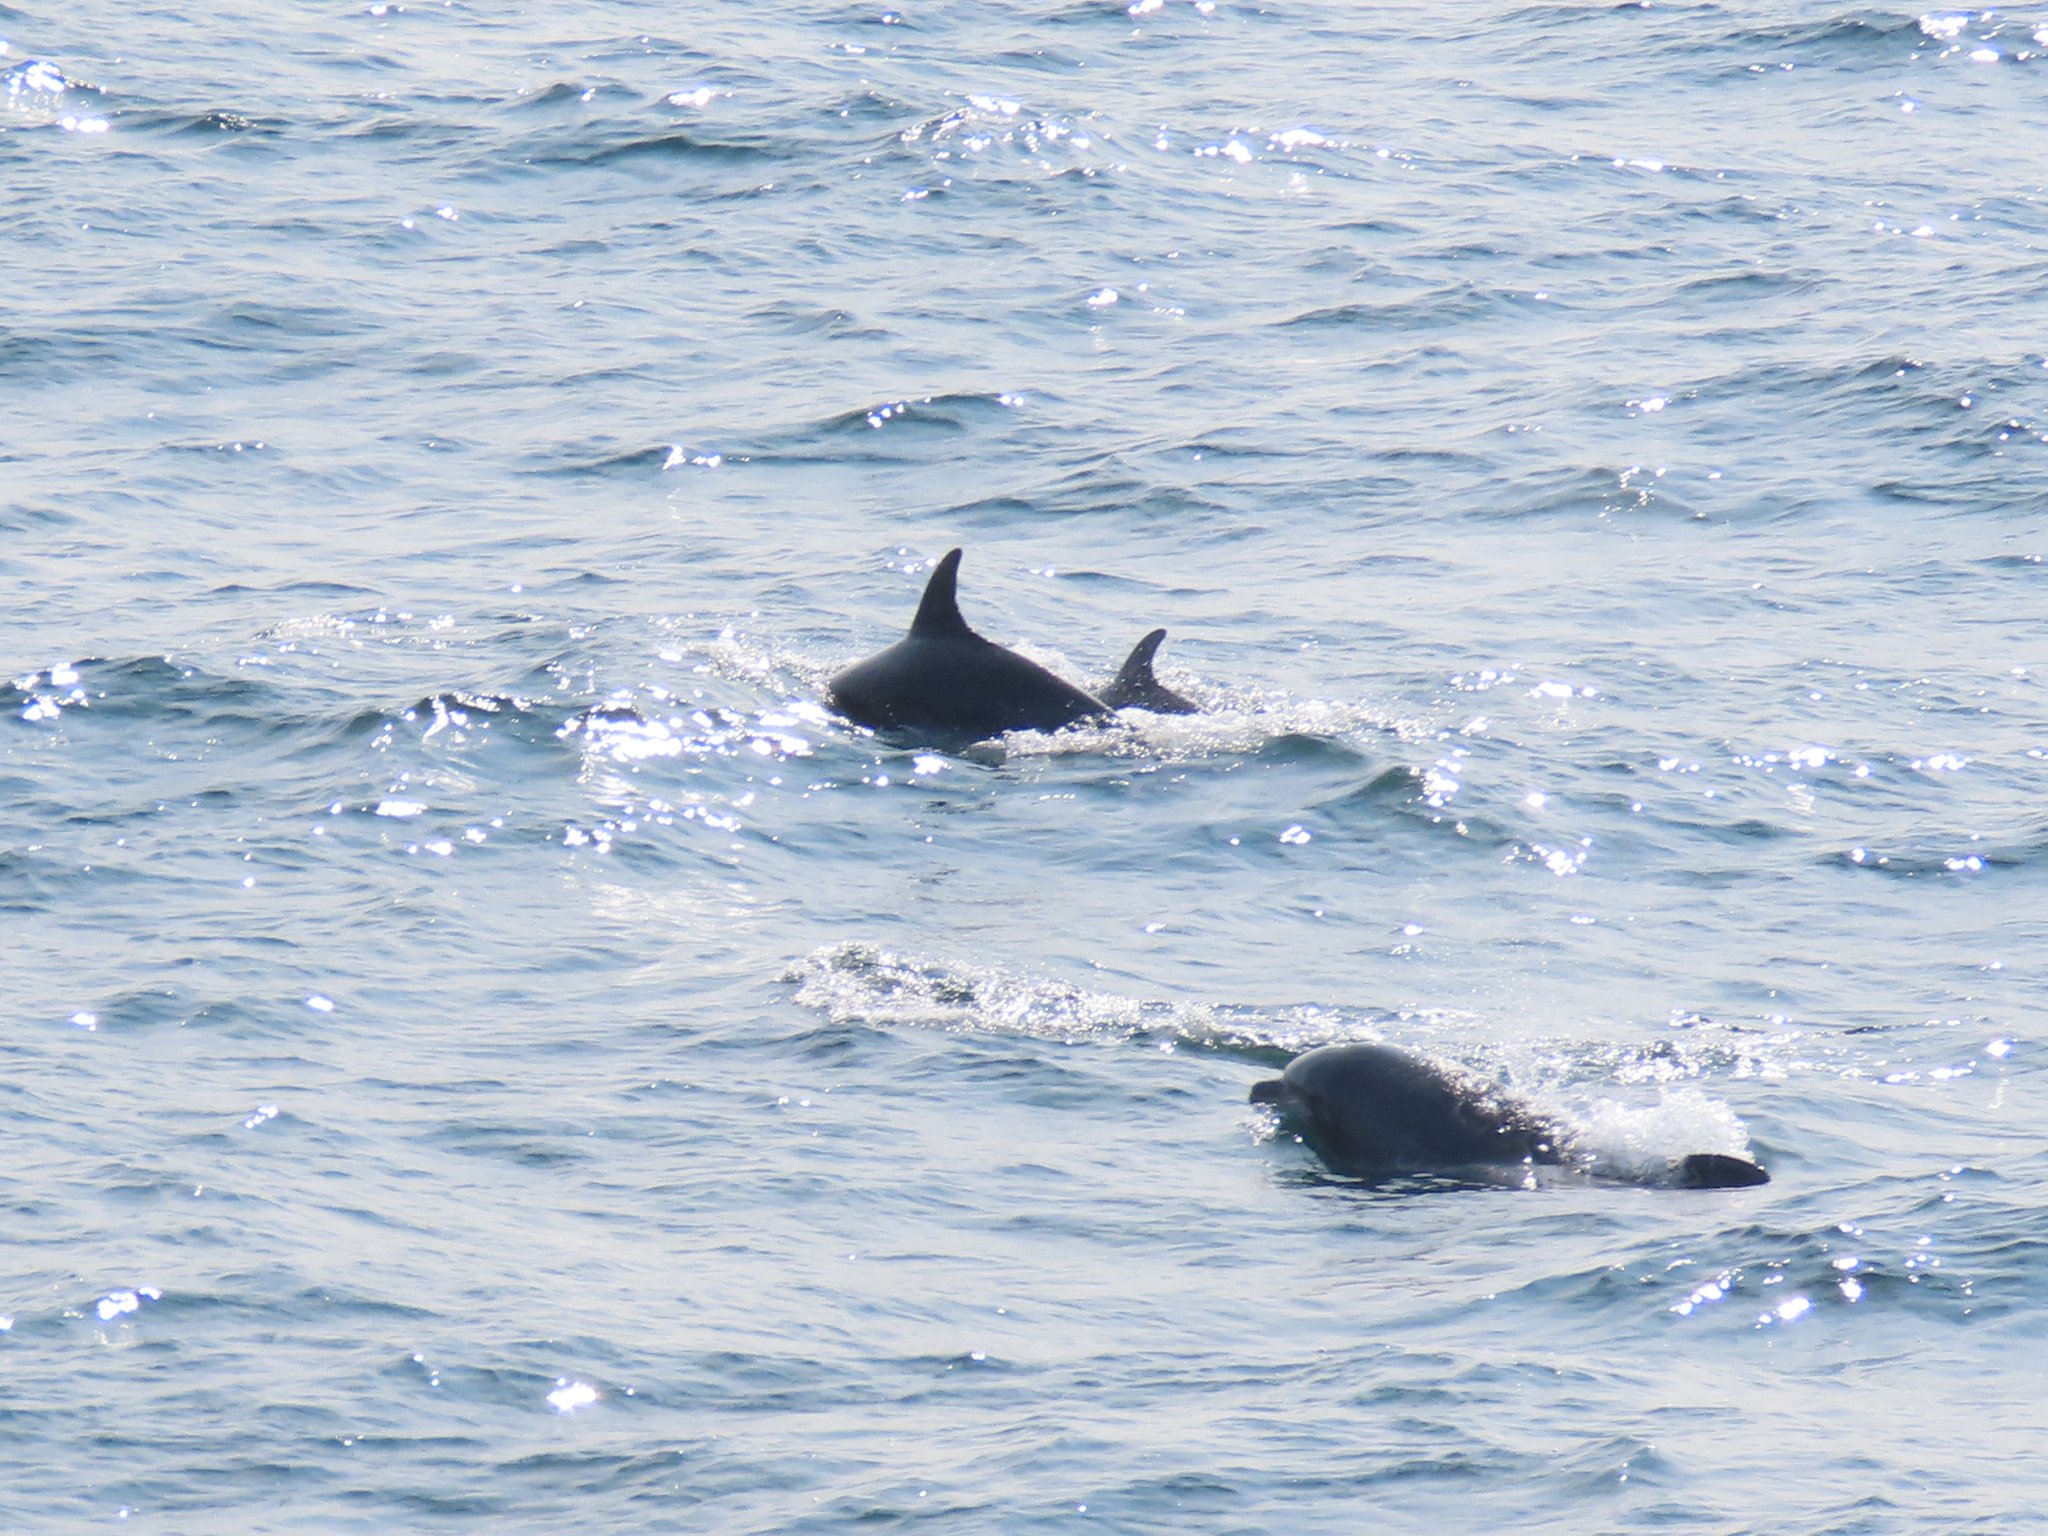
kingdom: Animalia
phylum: Chordata
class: Mammalia
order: Cetacea
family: Delphinidae
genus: Tursiops
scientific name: Tursiops truncatus
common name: Bottlenose dolphin
